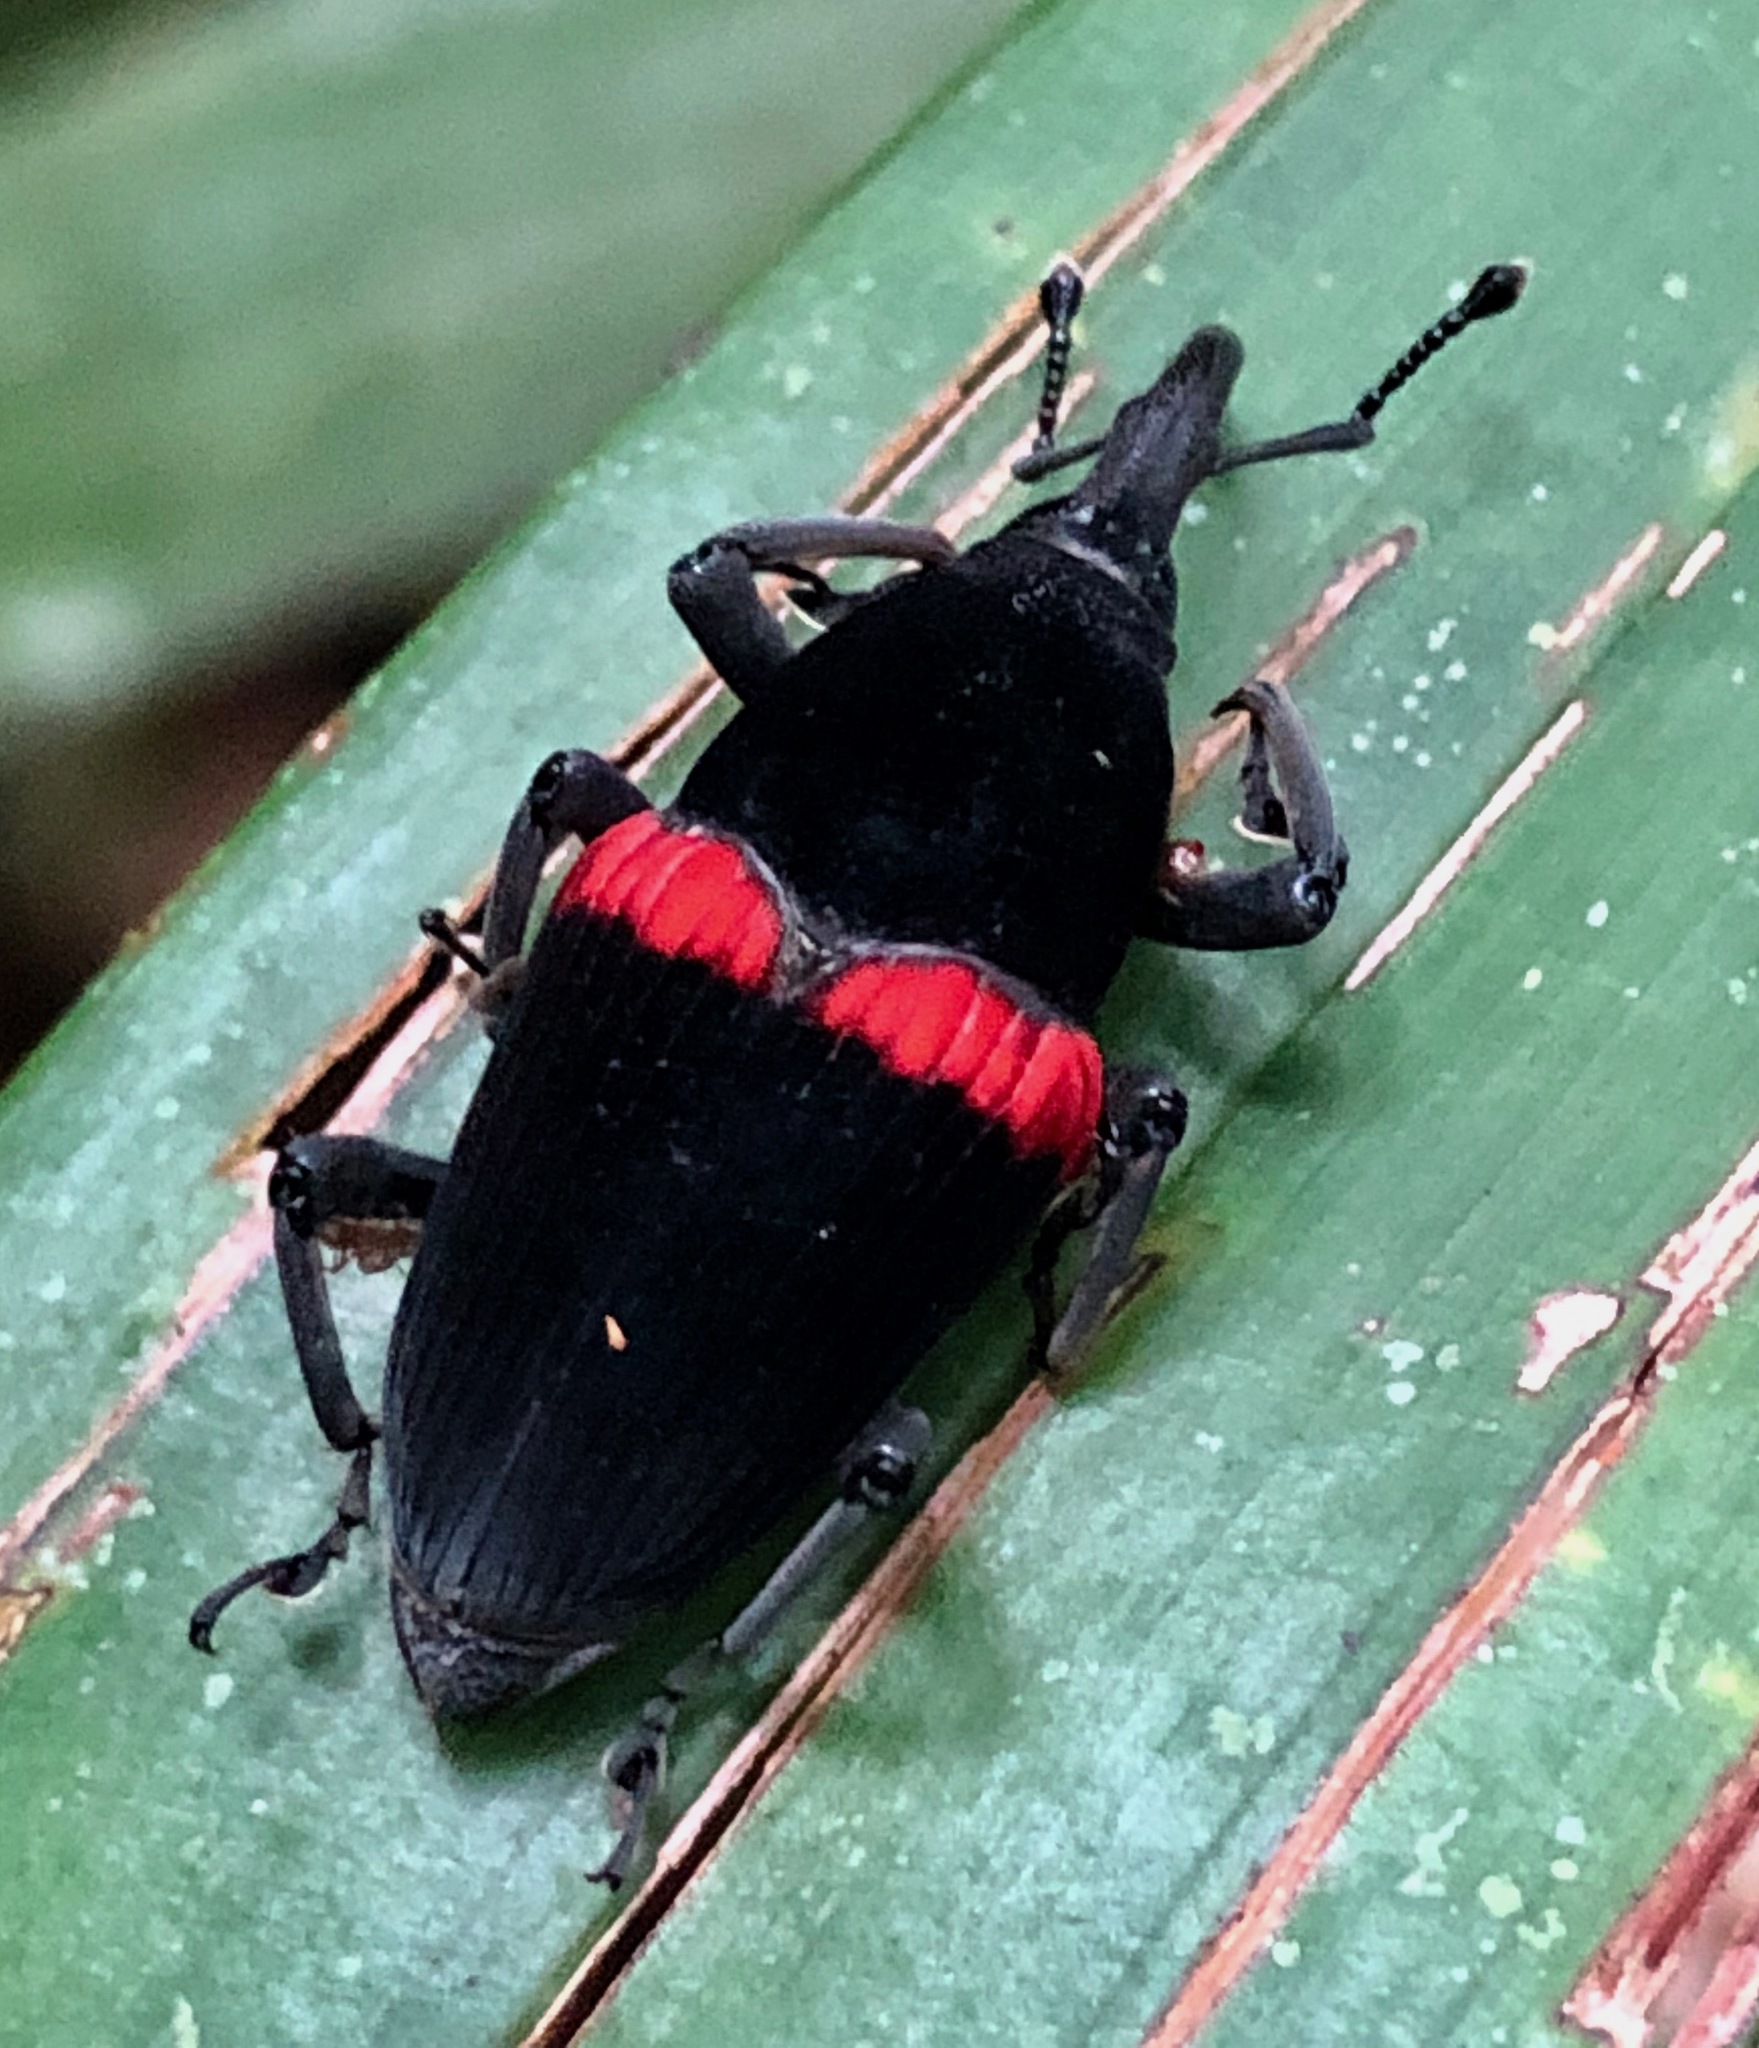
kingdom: Animalia
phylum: Arthropoda
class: Insecta
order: Coleoptera
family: Dryophthoridae
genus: Cactophagus
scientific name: Cactophagus sanguinolentus
